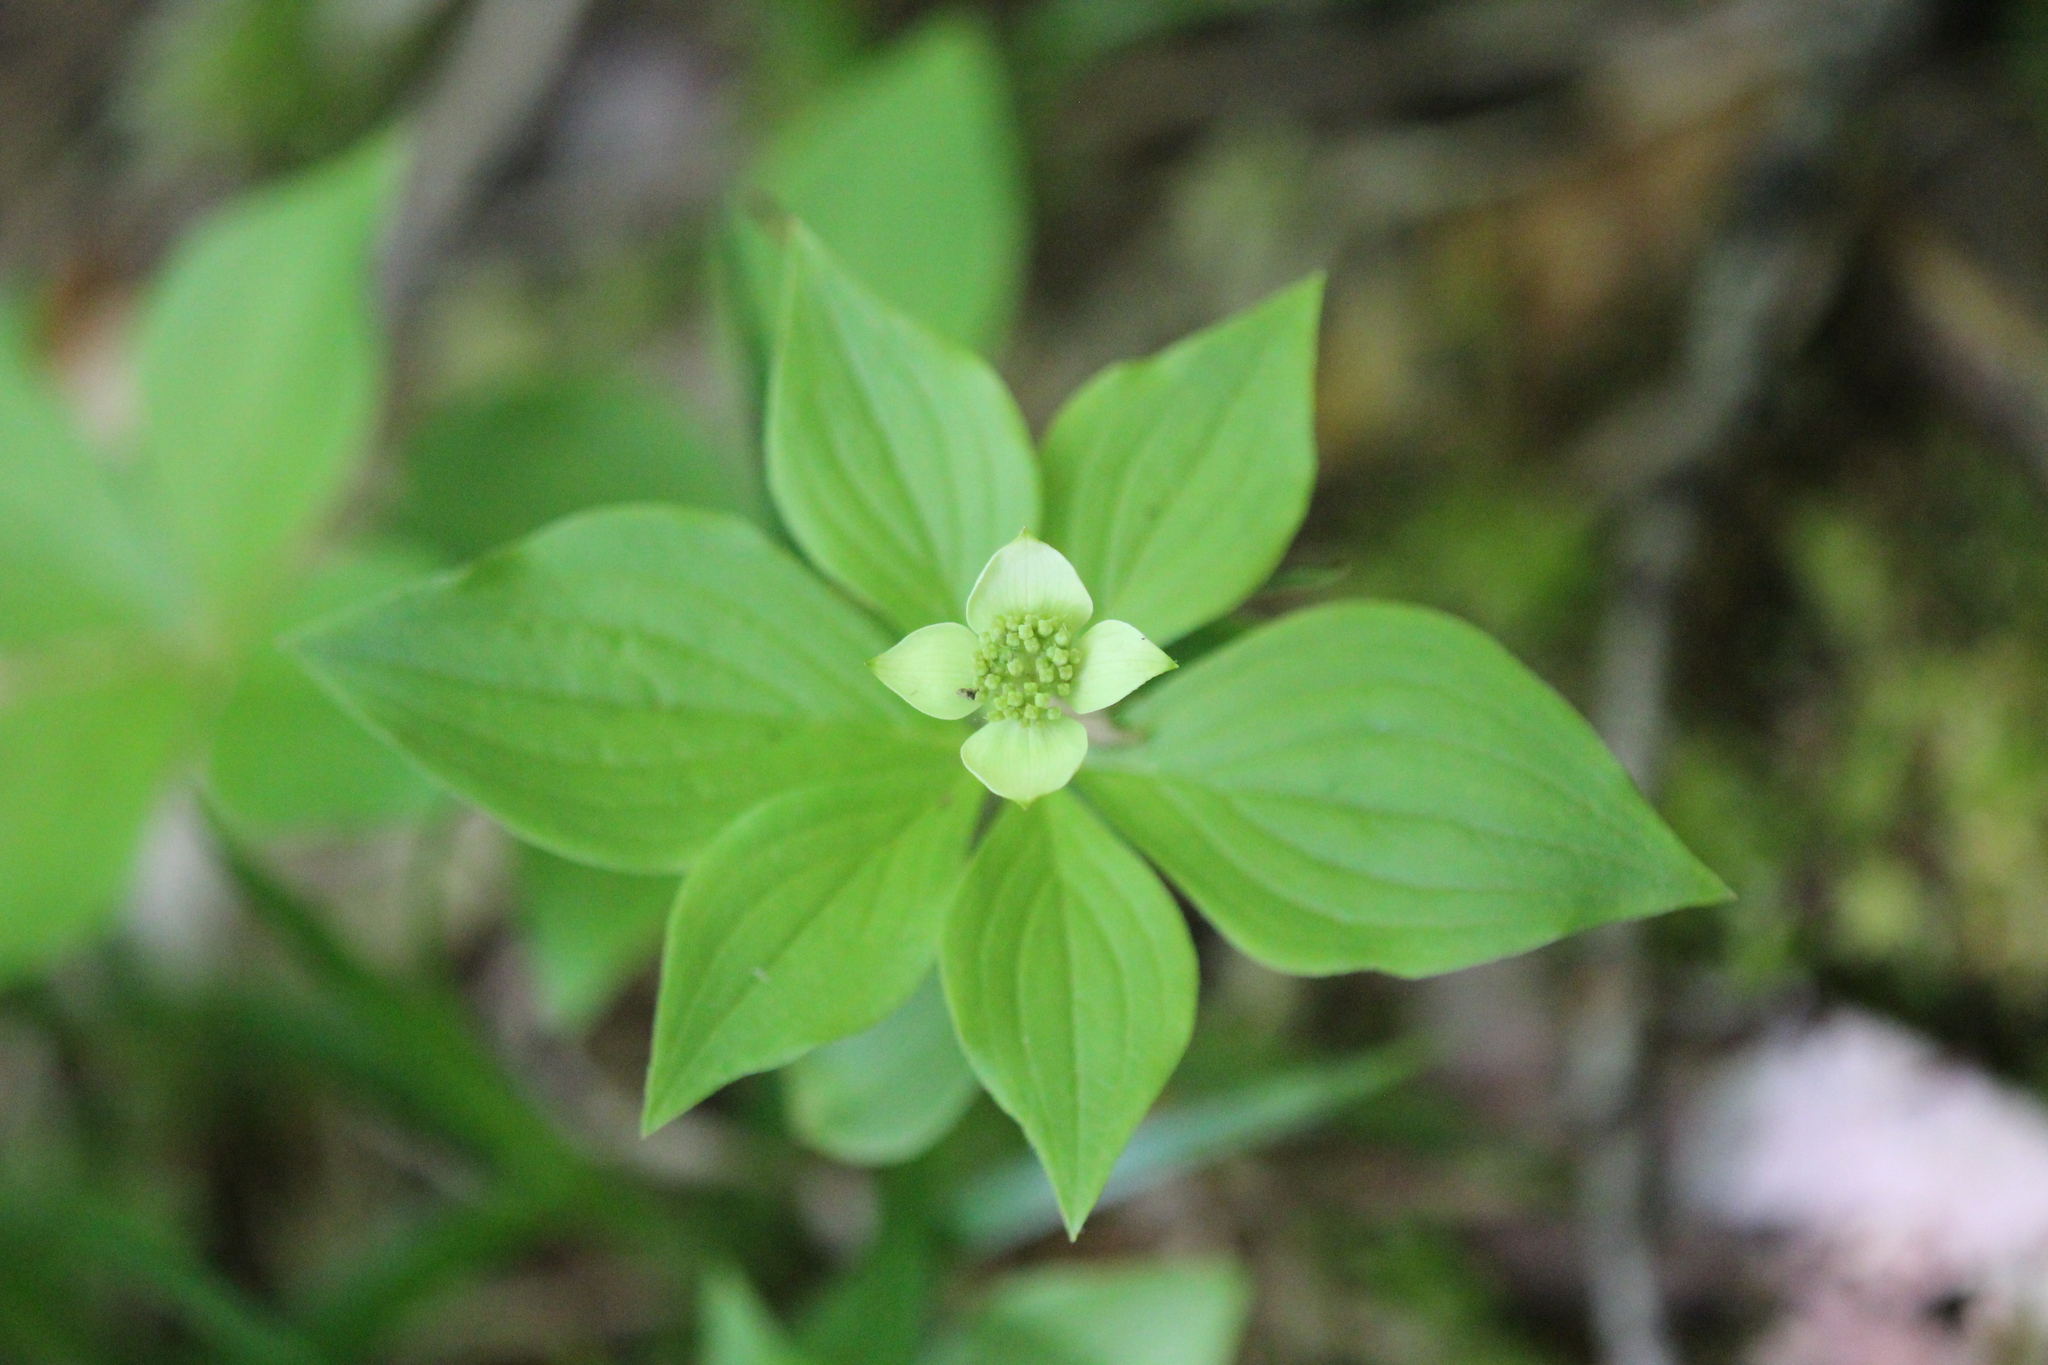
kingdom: Plantae
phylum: Tracheophyta
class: Magnoliopsida
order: Cornales
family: Cornaceae
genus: Cornus
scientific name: Cornus canadensis
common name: Creeping dogwood
